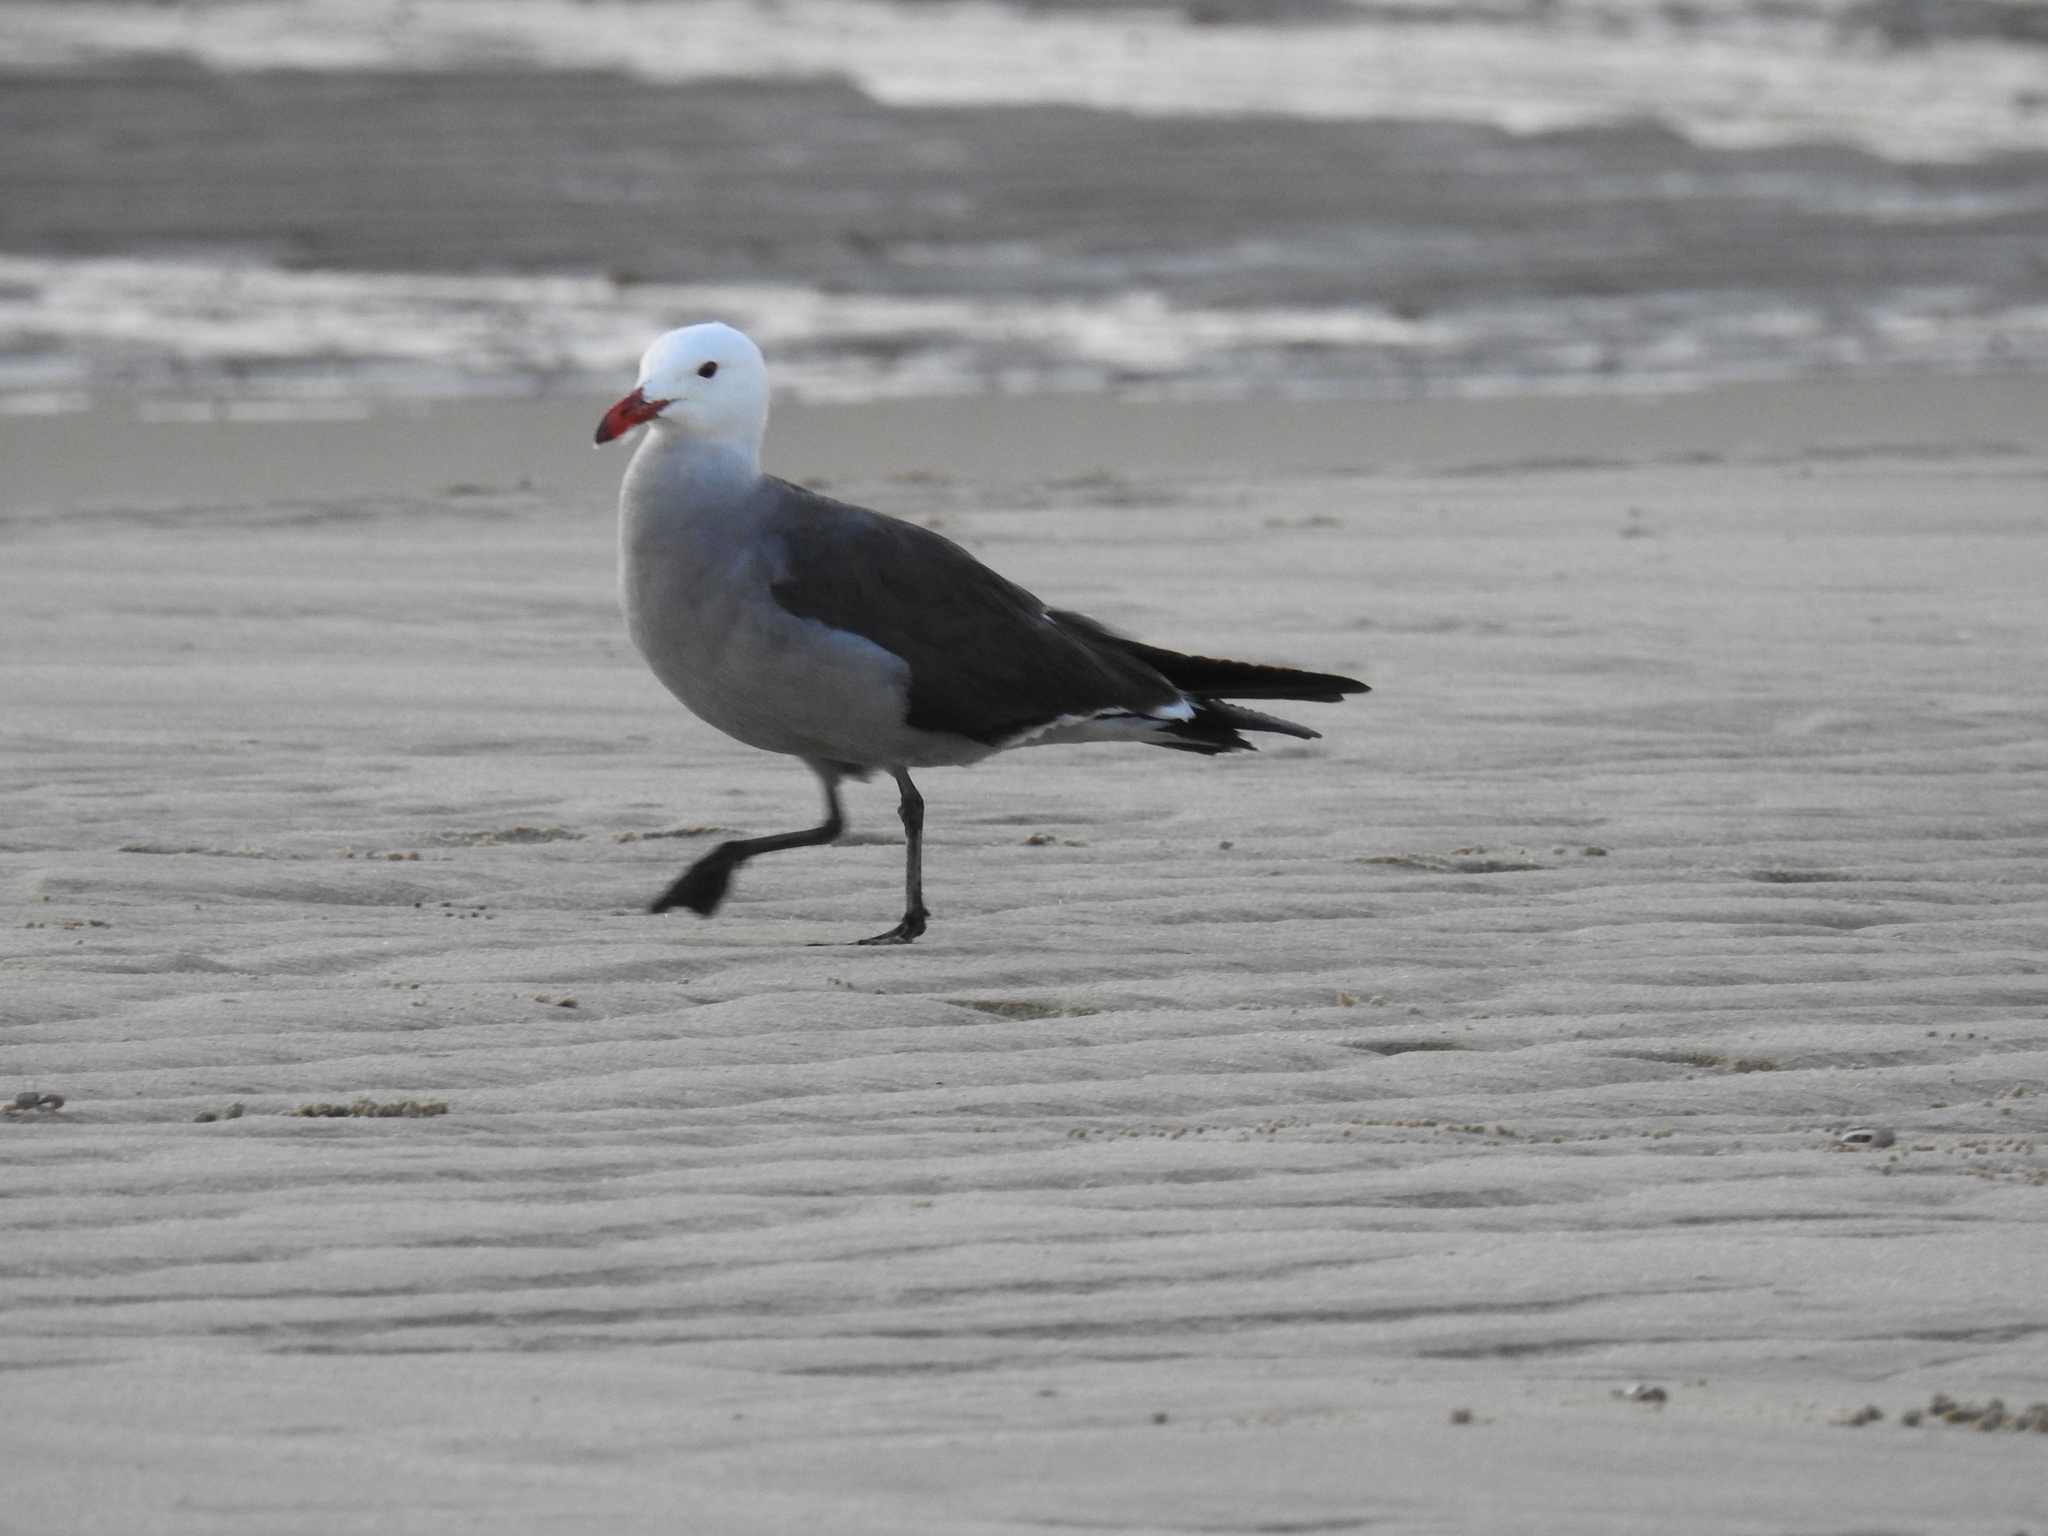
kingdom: Animalia
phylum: Chordata
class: Aves
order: Charadriiformes
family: Laridae
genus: Larus
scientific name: Larus heermanni
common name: Heermann's gull
